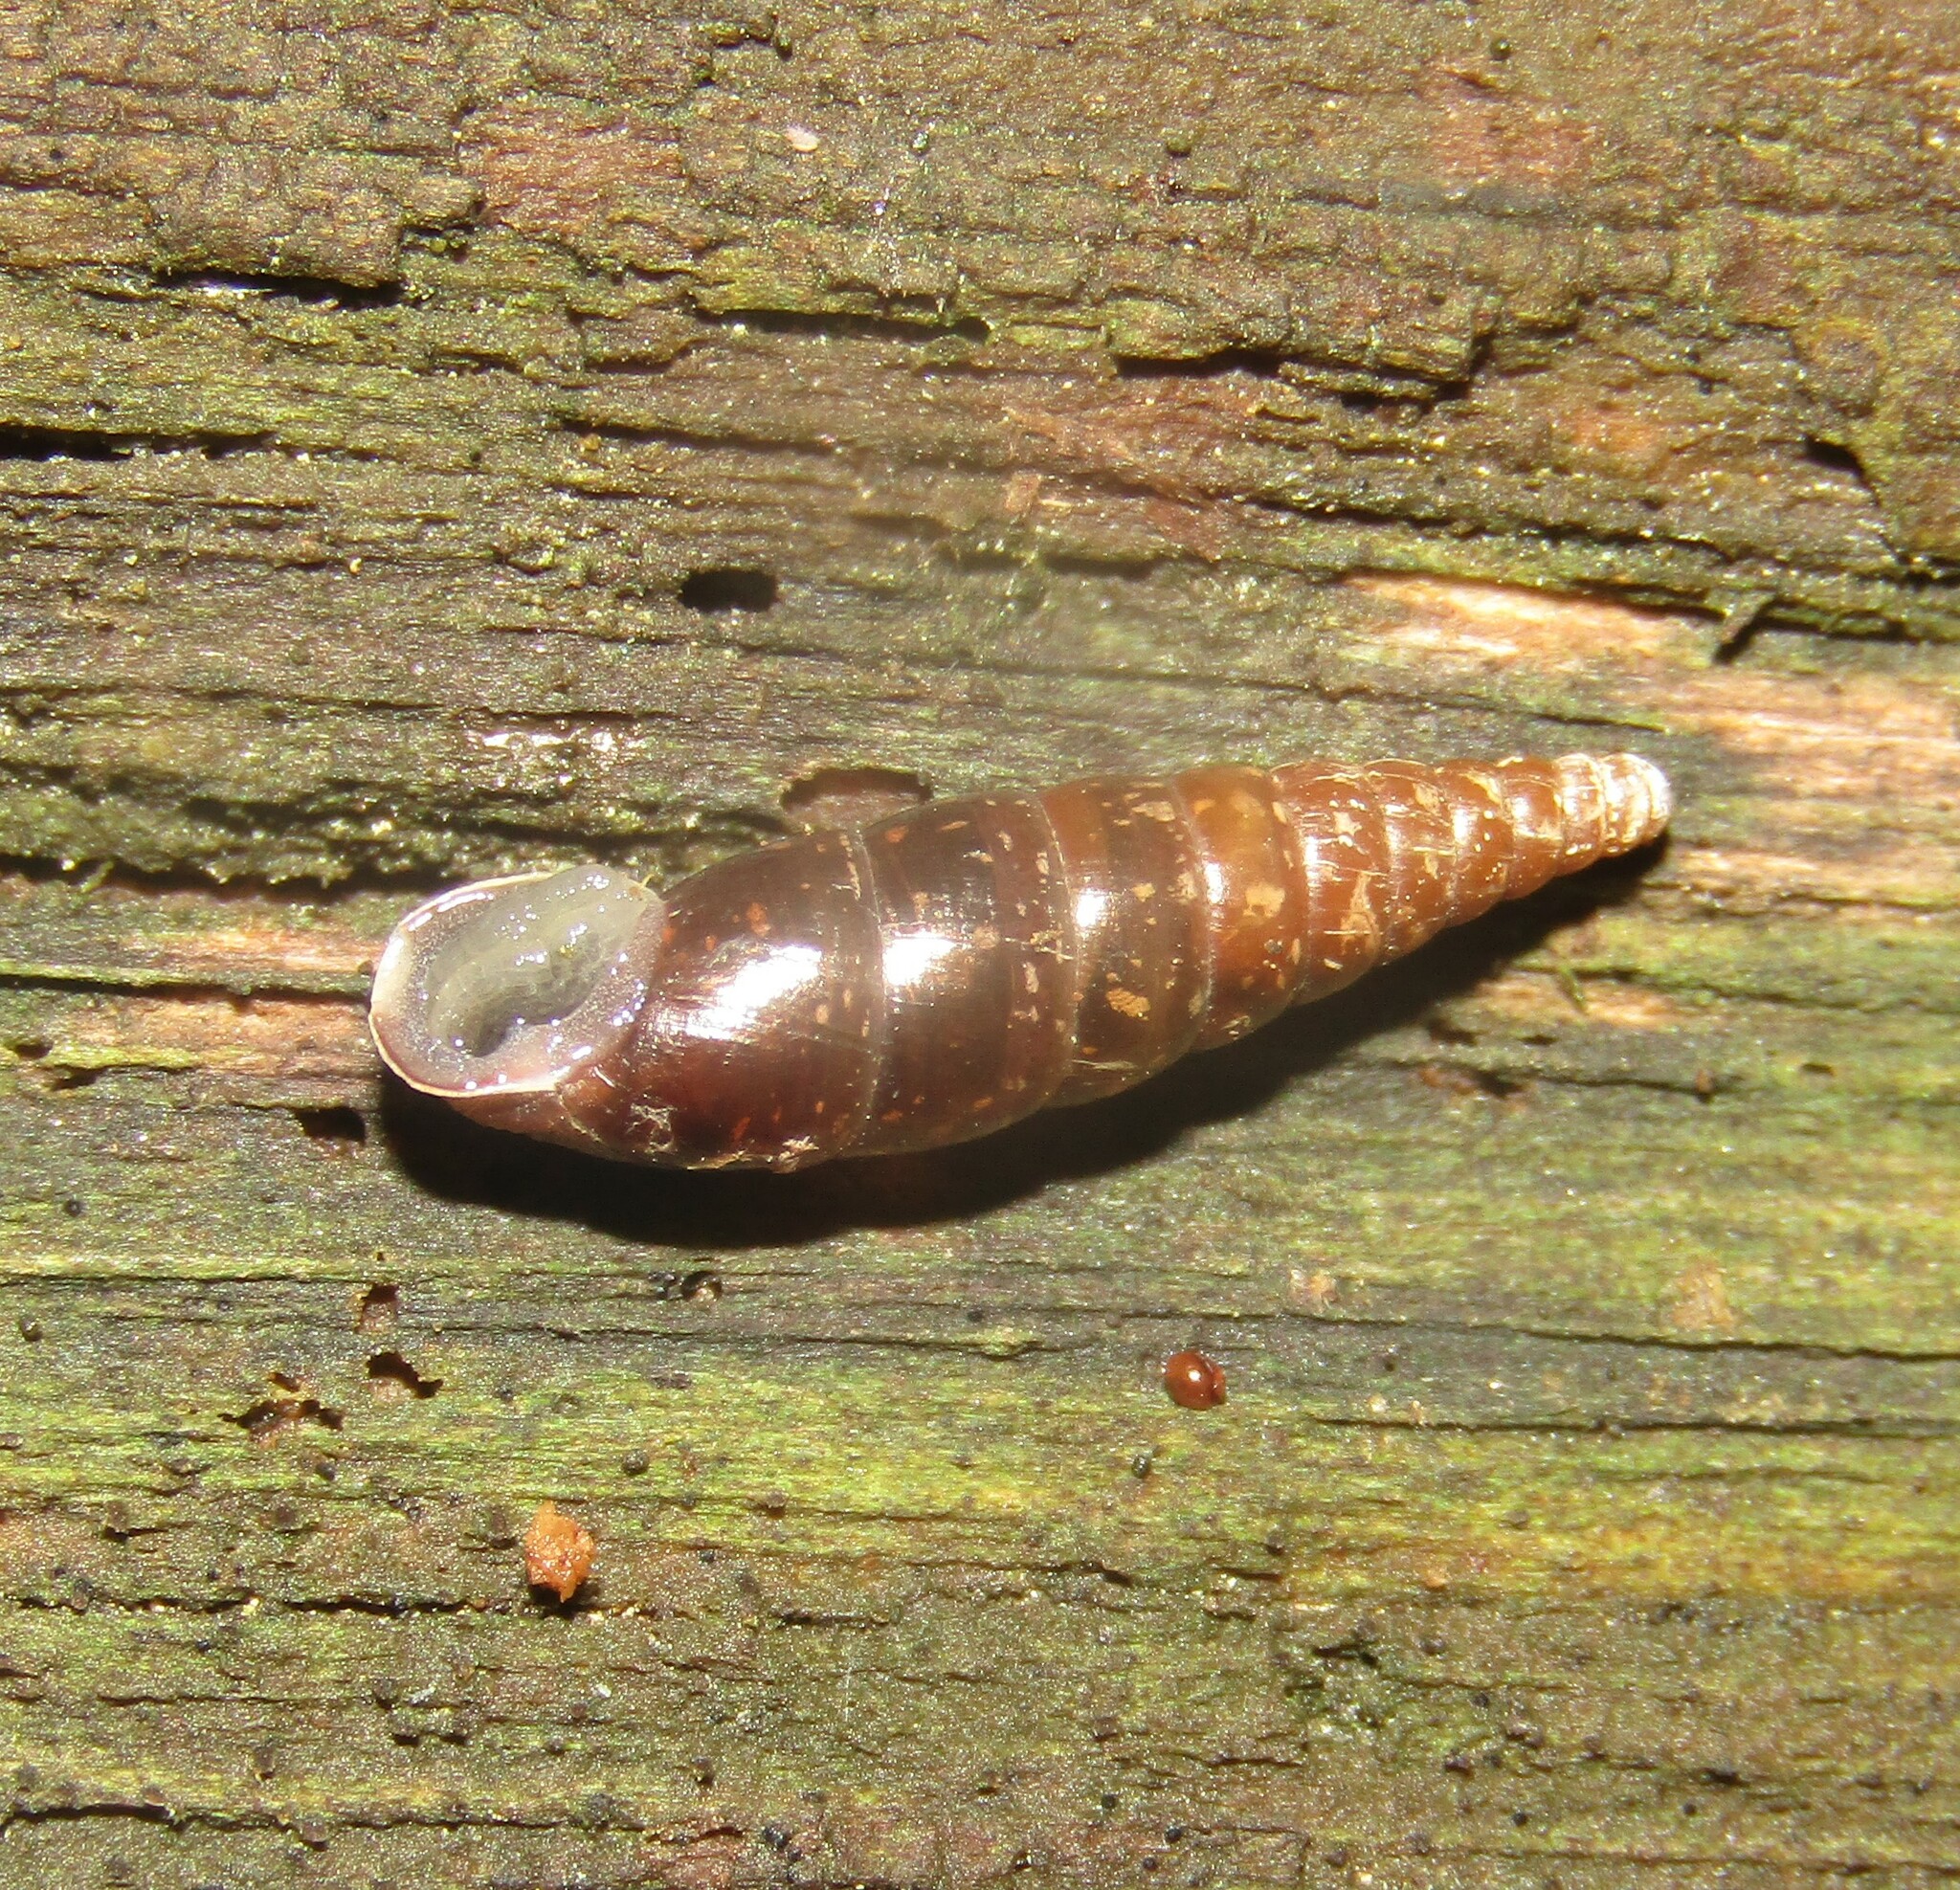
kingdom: Animalia
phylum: Mollusca
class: Gastropoda
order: Stylommatophora
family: Clausiliidae
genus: Cochlodina
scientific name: Cochlodina laminata
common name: Plaited door snail
